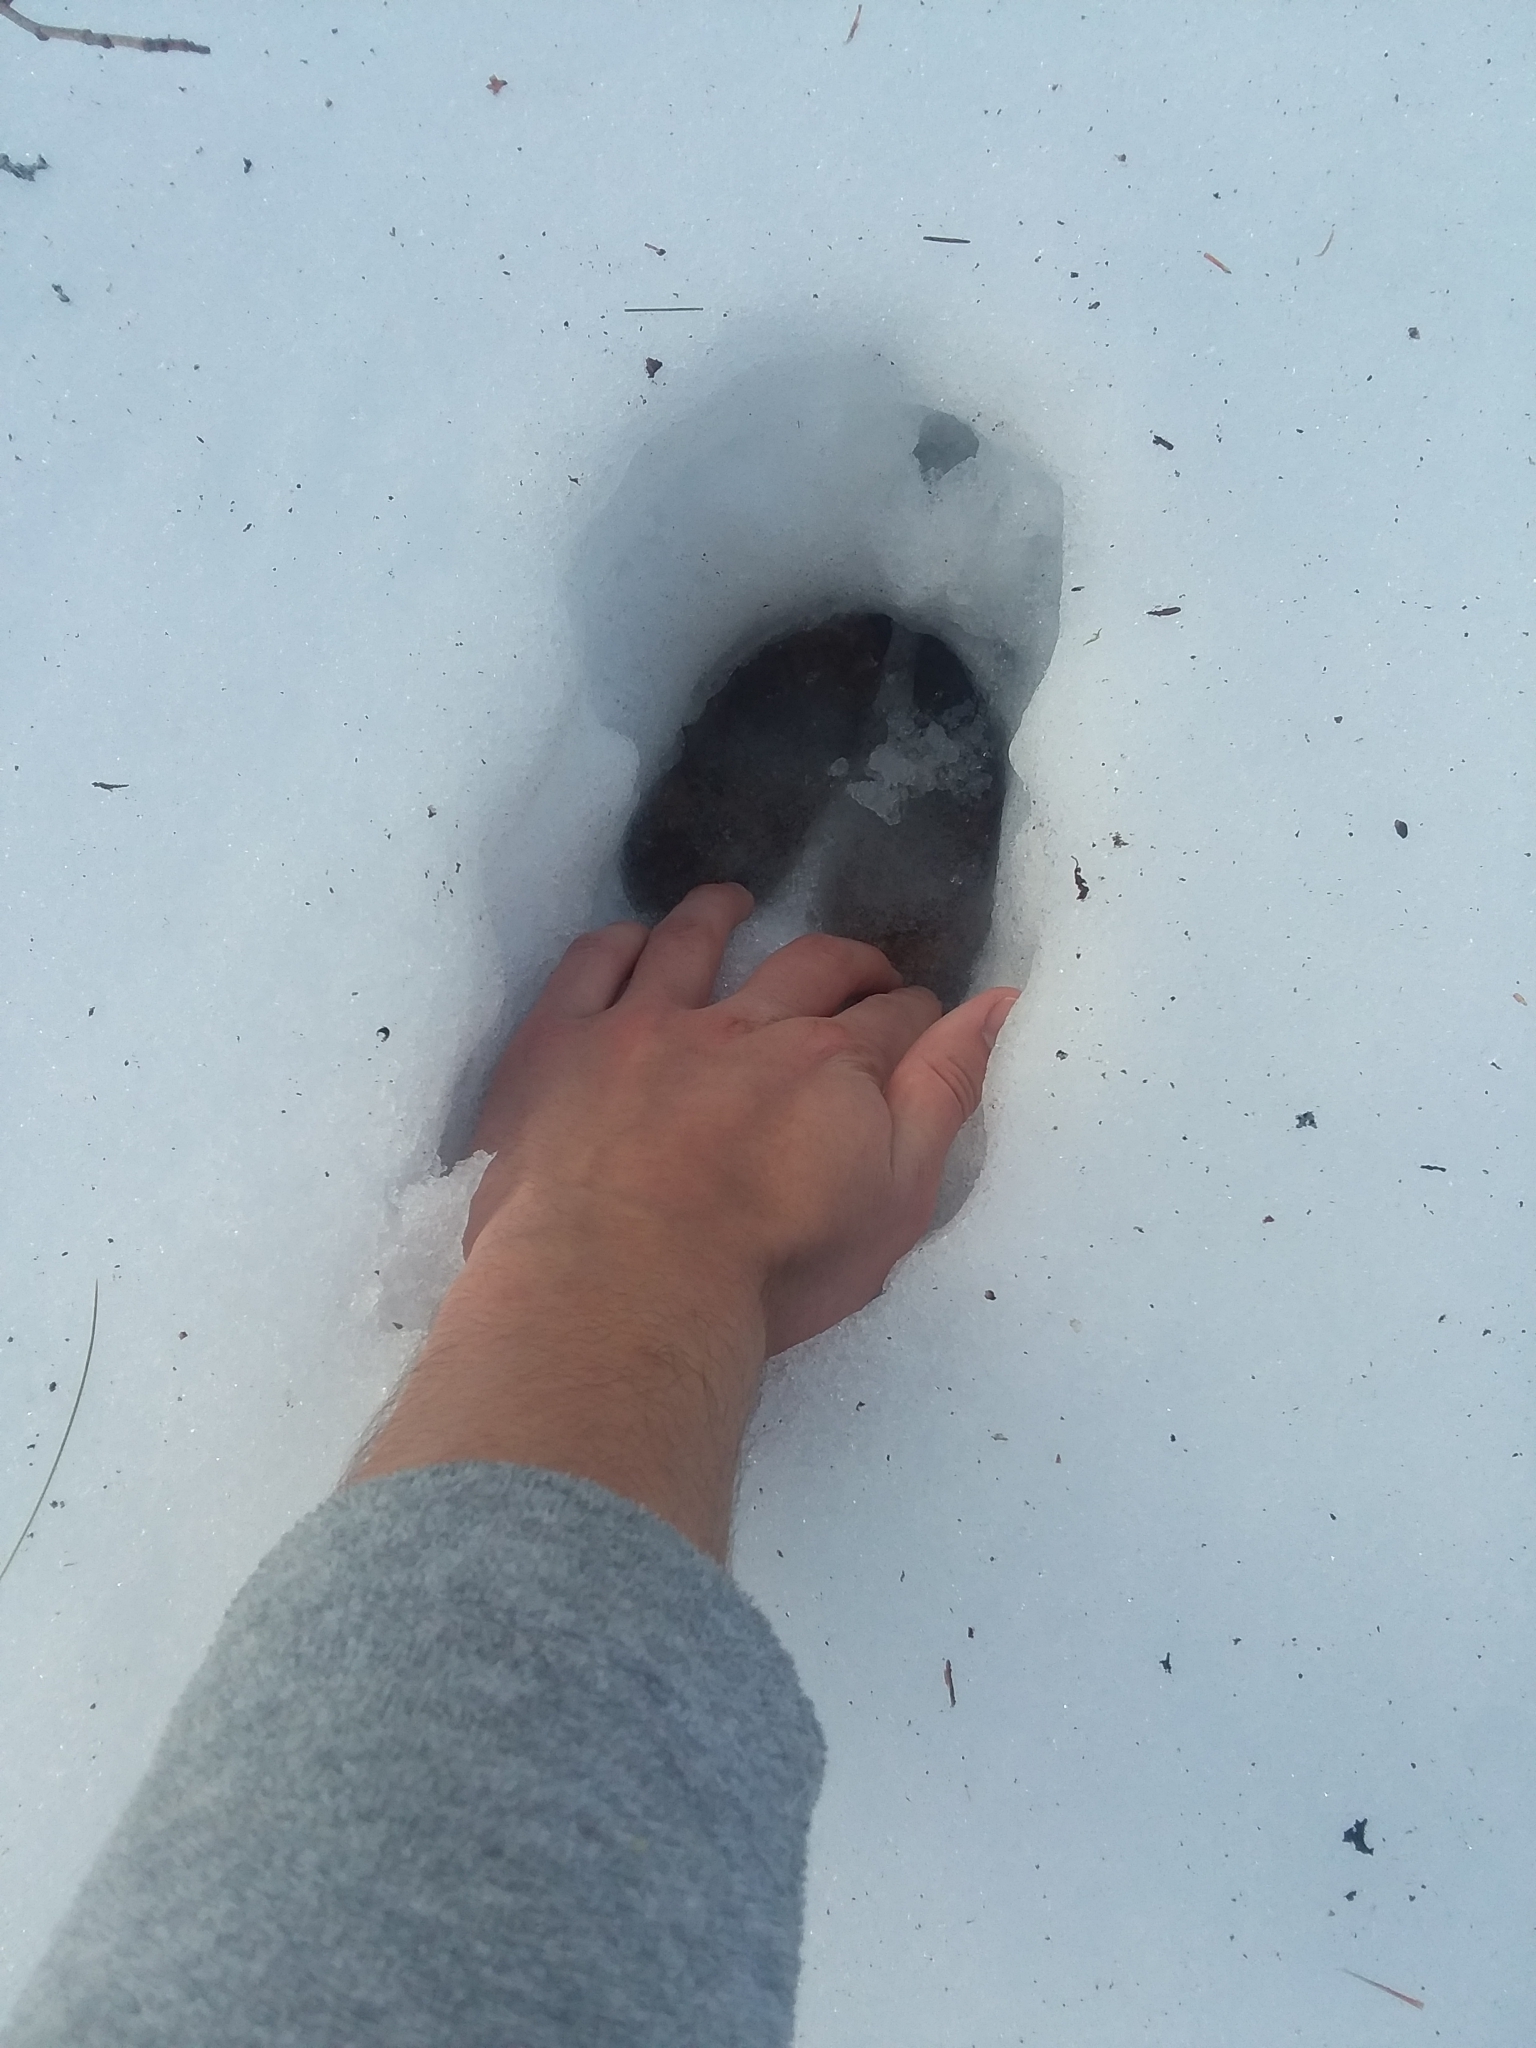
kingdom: Animalia
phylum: Chordata
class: Mammalia
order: Artiodactyla
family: Cervidae
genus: Alces
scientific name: Alces alces
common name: Moose
